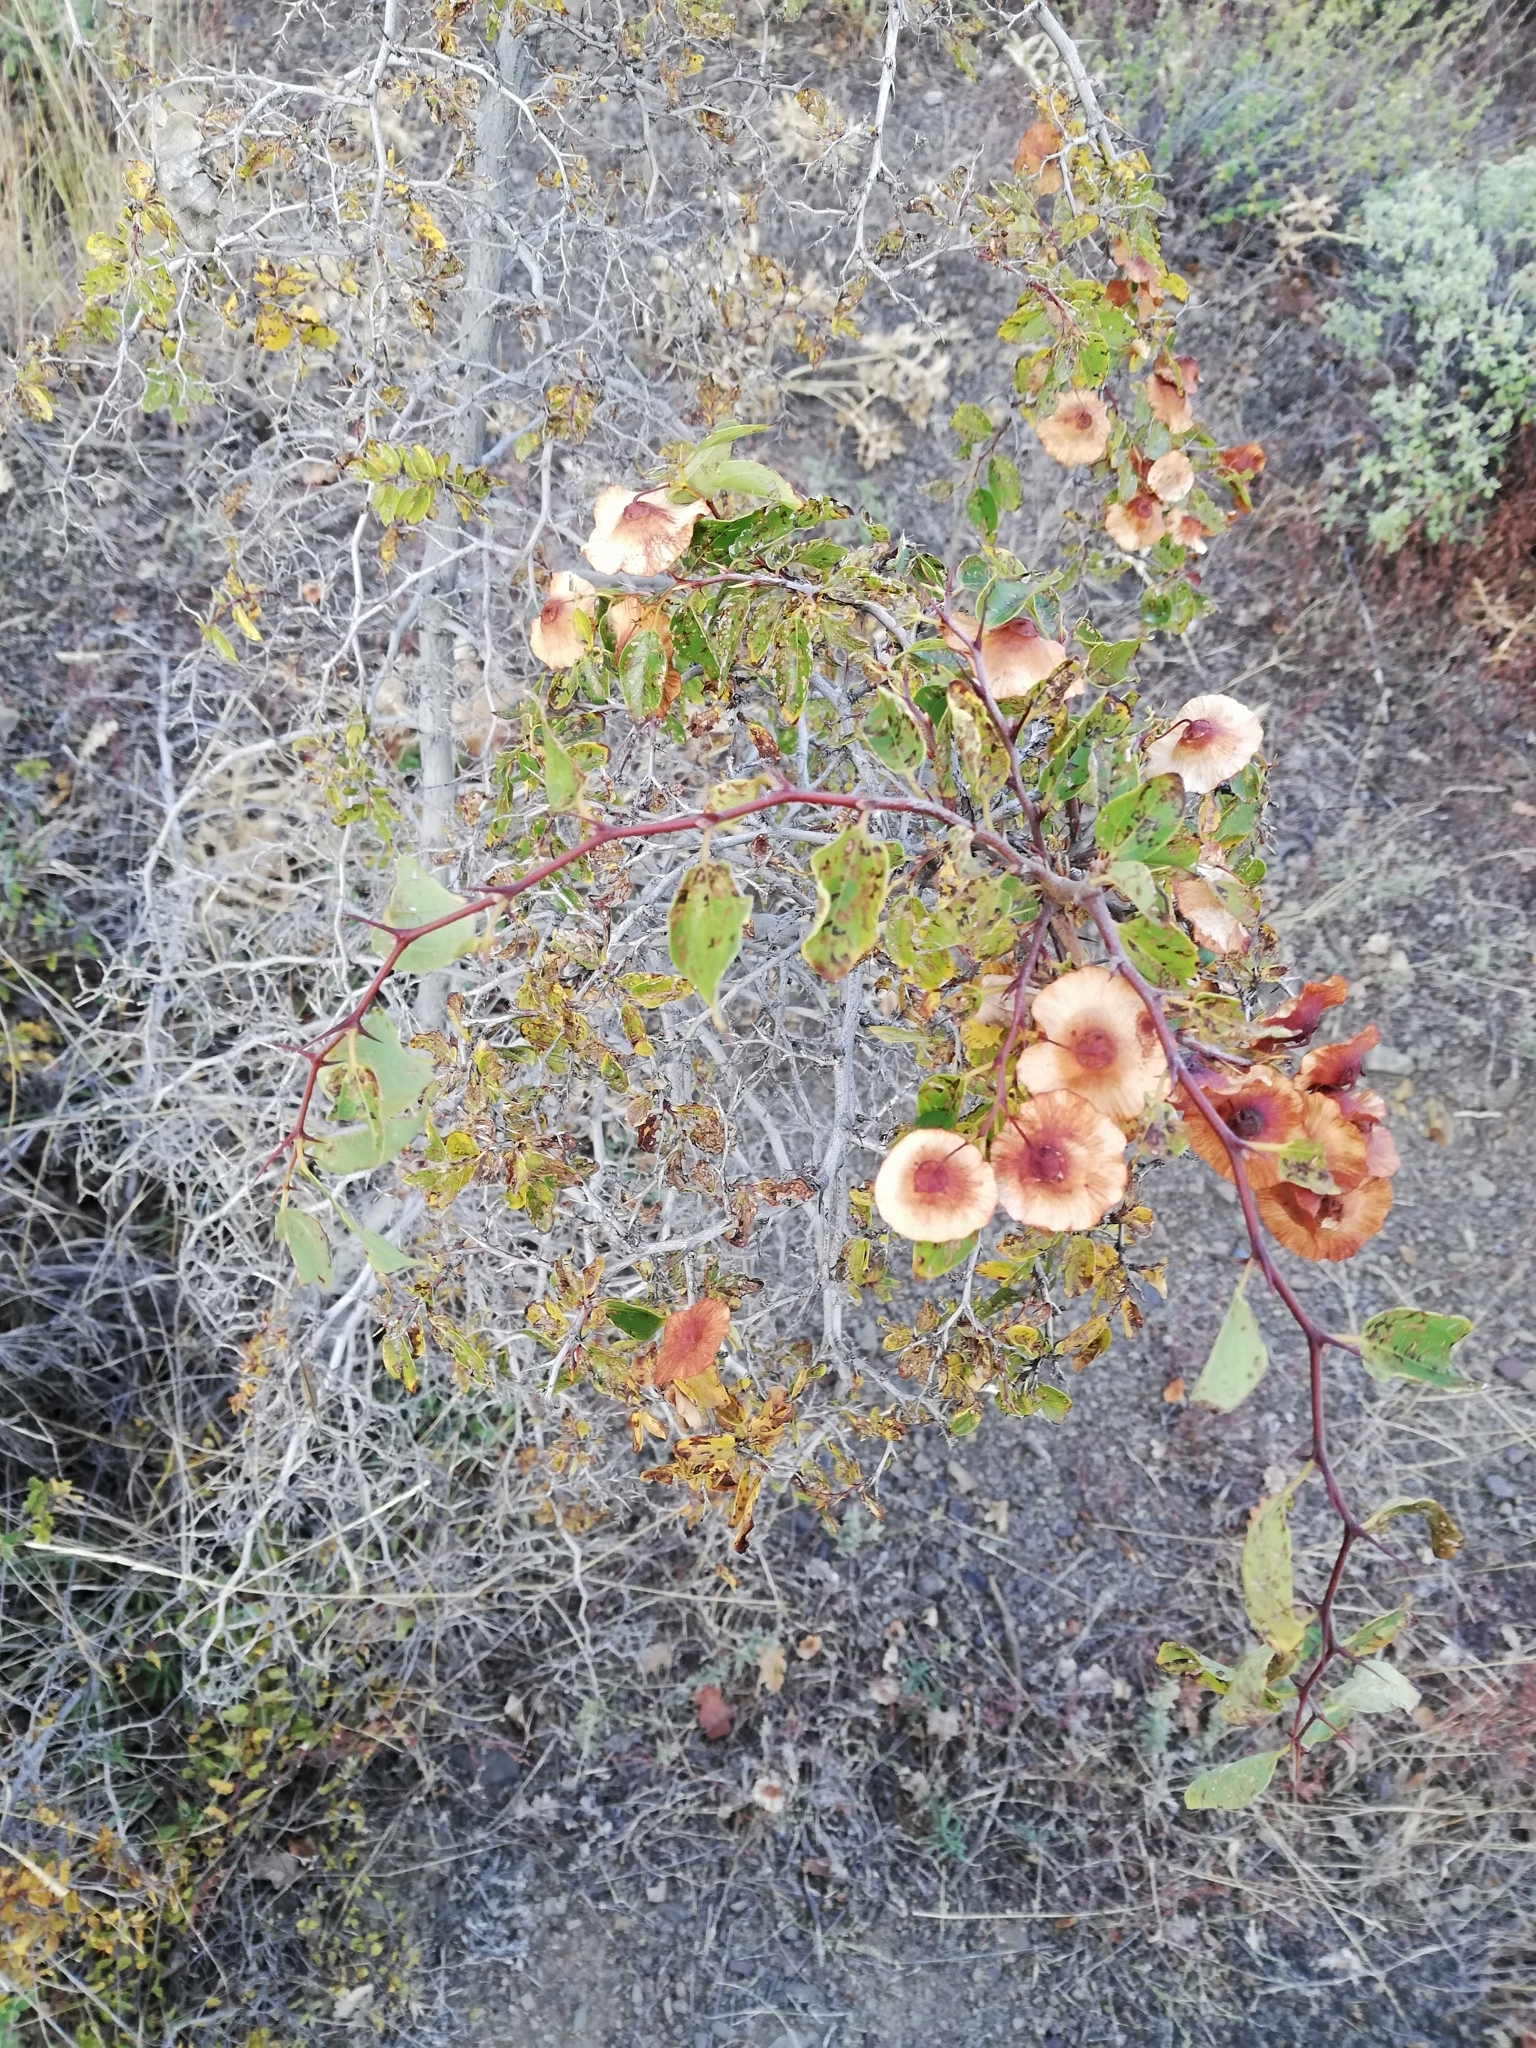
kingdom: Plantae
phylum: Tracheophyta
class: Magnoliopsida
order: Rosales
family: Rhamnaceae
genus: Paliurus
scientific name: Paliurus spina-christi
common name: Jeruselem thorn
